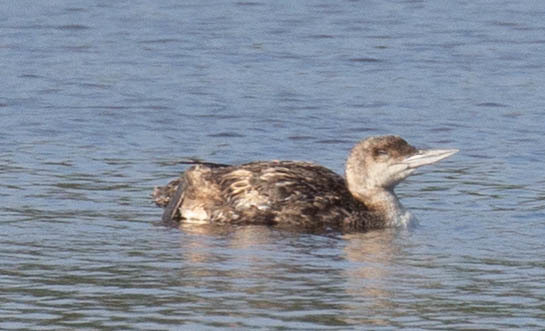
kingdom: Animalia
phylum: Chordata
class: Aves
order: Gaviiformes
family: Gaviidae
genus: Gavia
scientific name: Gavia immer
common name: Common loon
